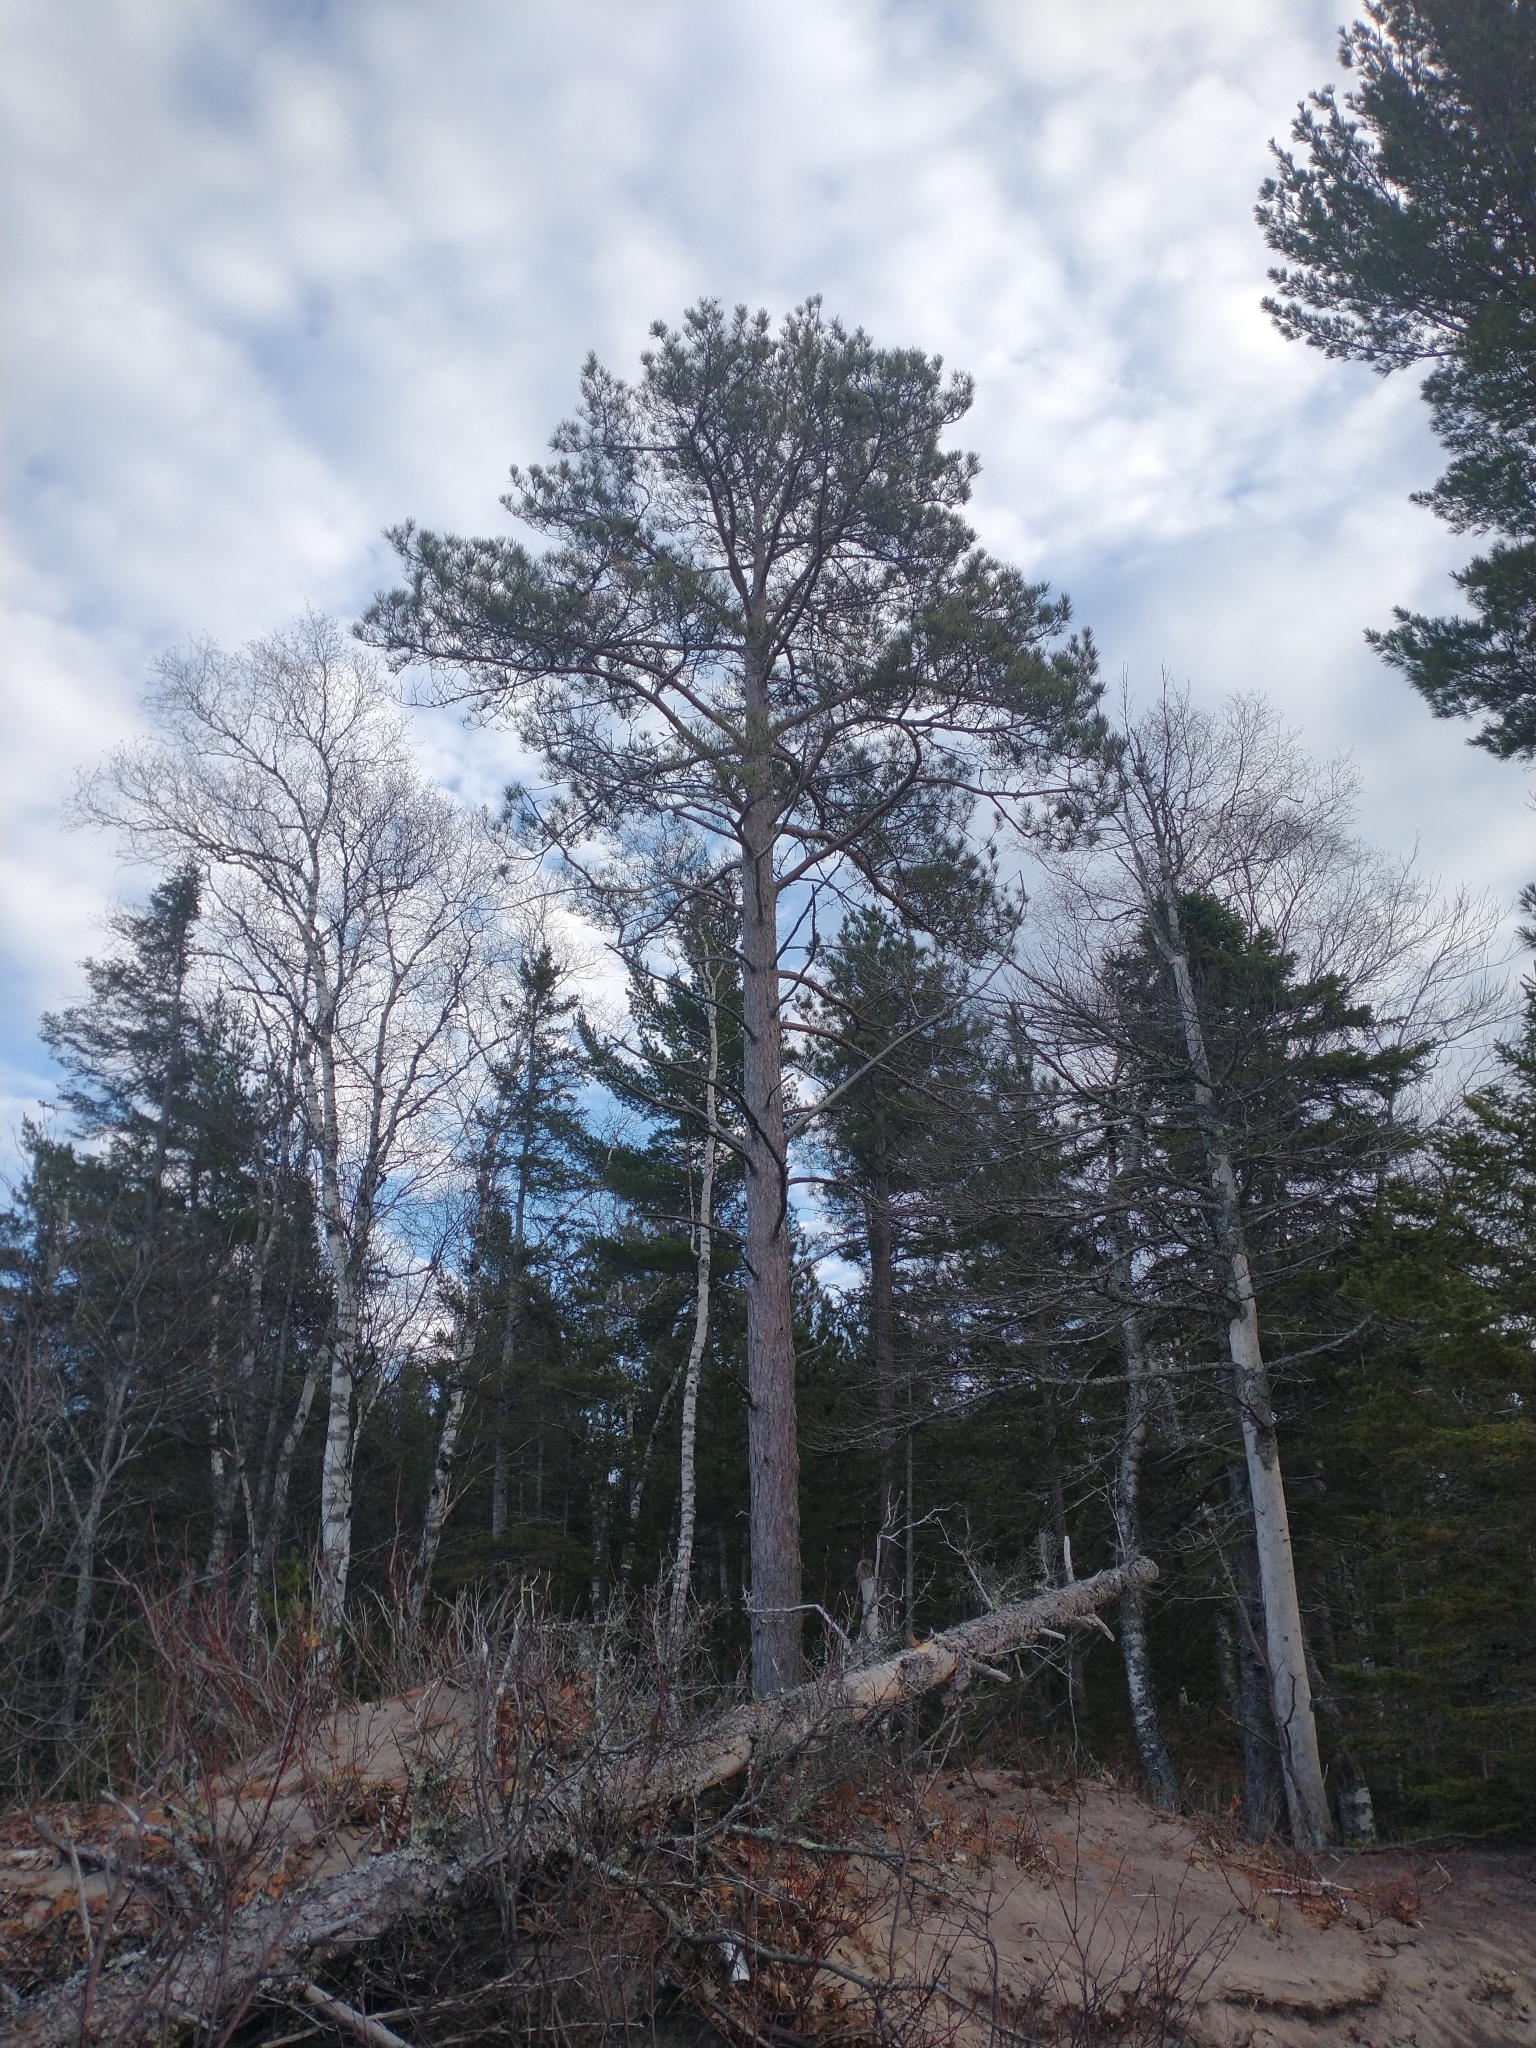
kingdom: Plantae
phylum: Tracheophyta
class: Pinopsida
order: Pinales
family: Pinaceae
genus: Pinus
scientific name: Pinus resinosa
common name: Norway pine
